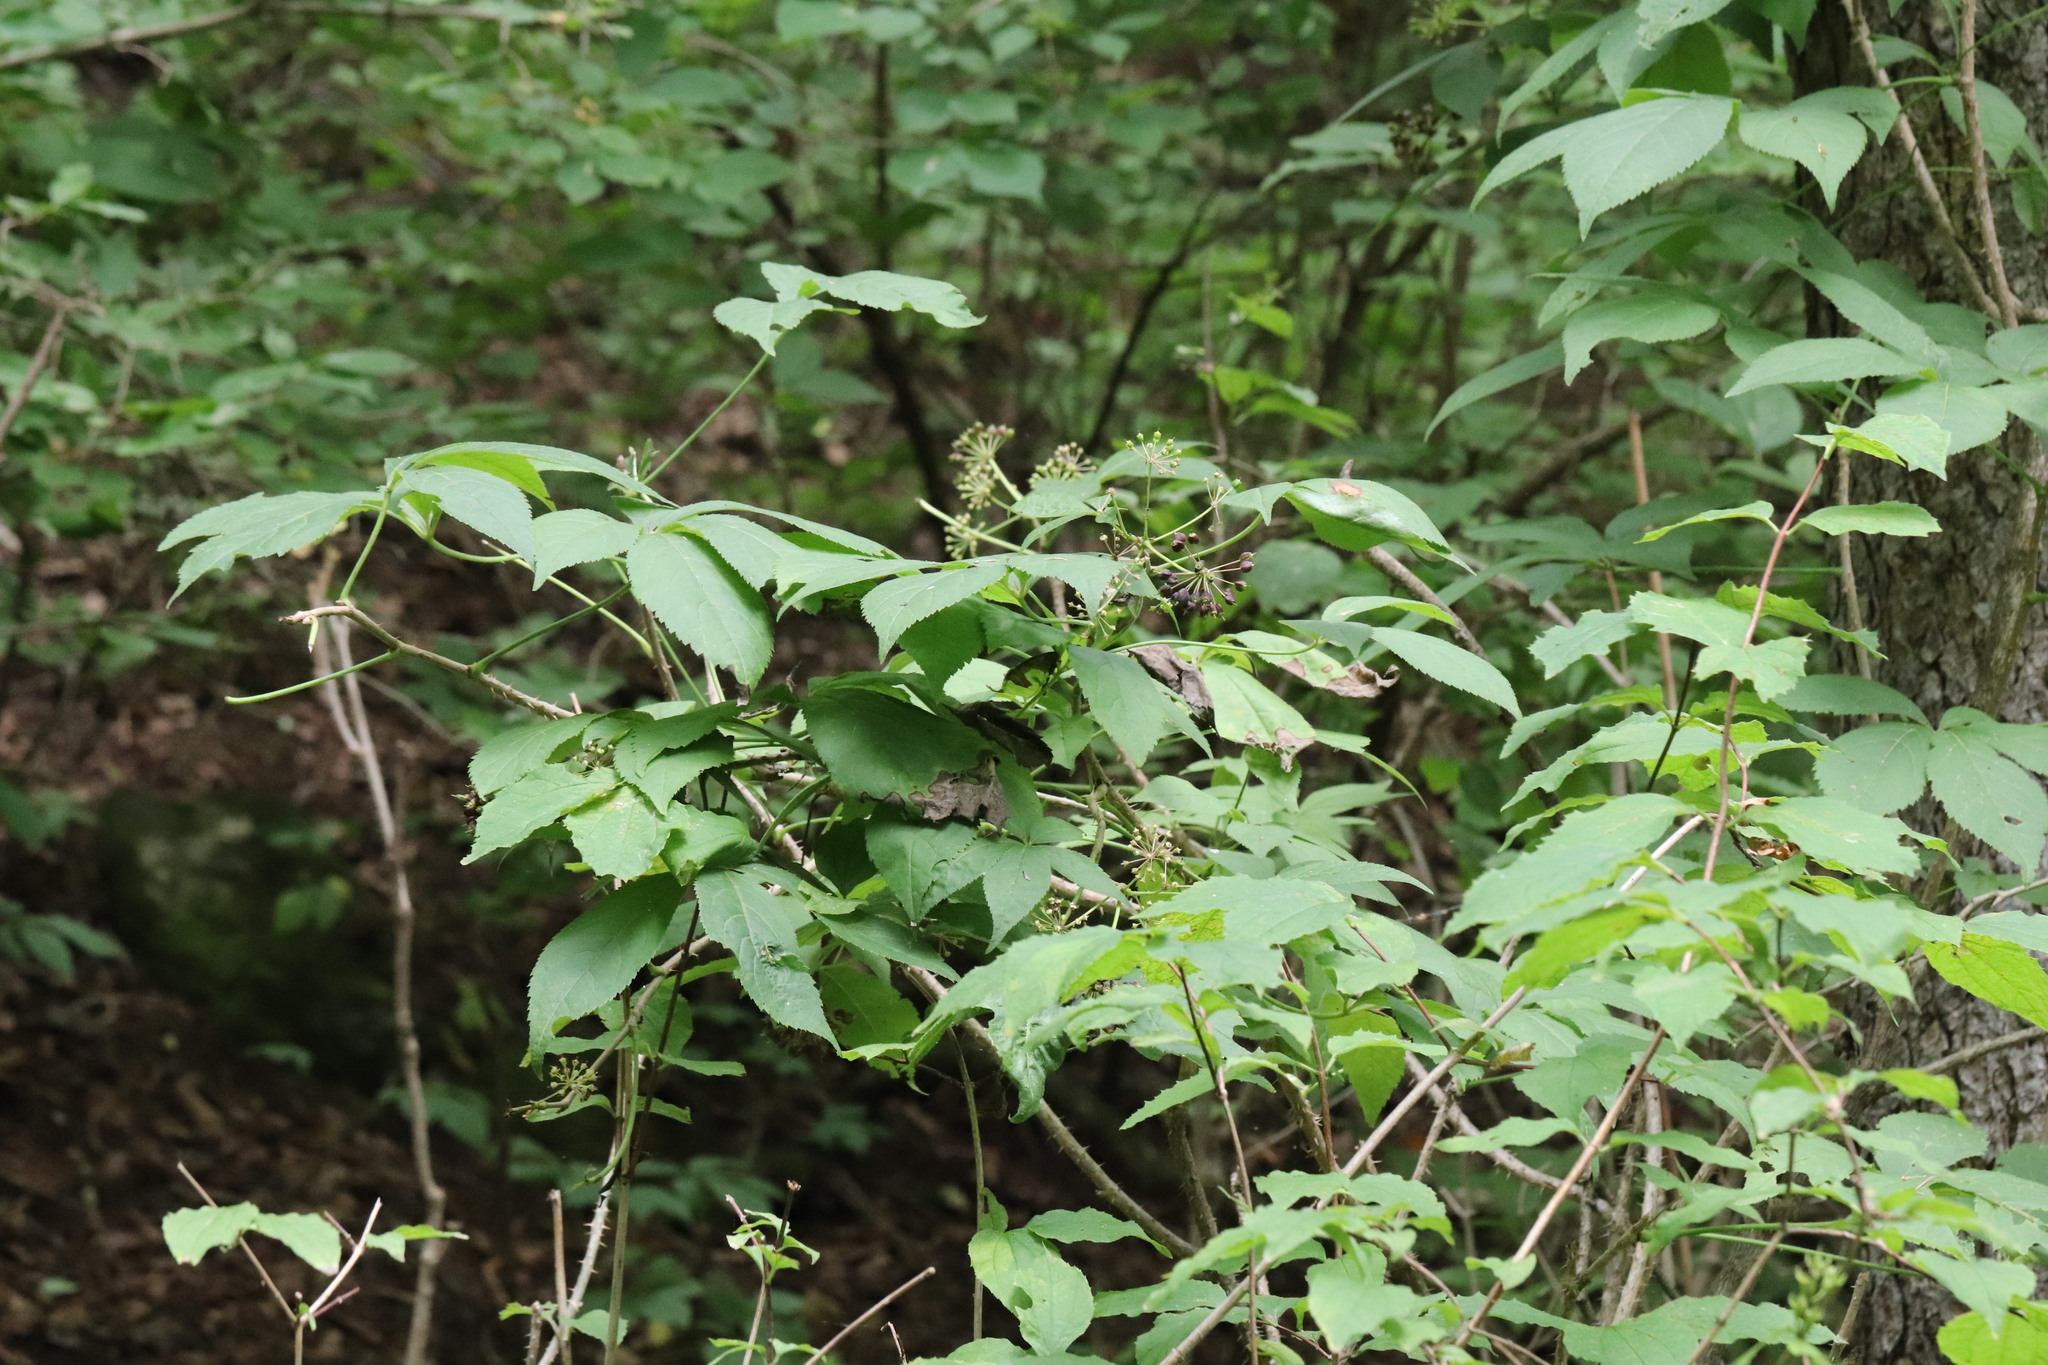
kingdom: Plantae
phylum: Tracheophyta
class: Magnoliopsida
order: Apiales
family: Araliaceae
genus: Eleutherococcus
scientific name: Eleutherococcus senticosus
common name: Siberian-ginseng
